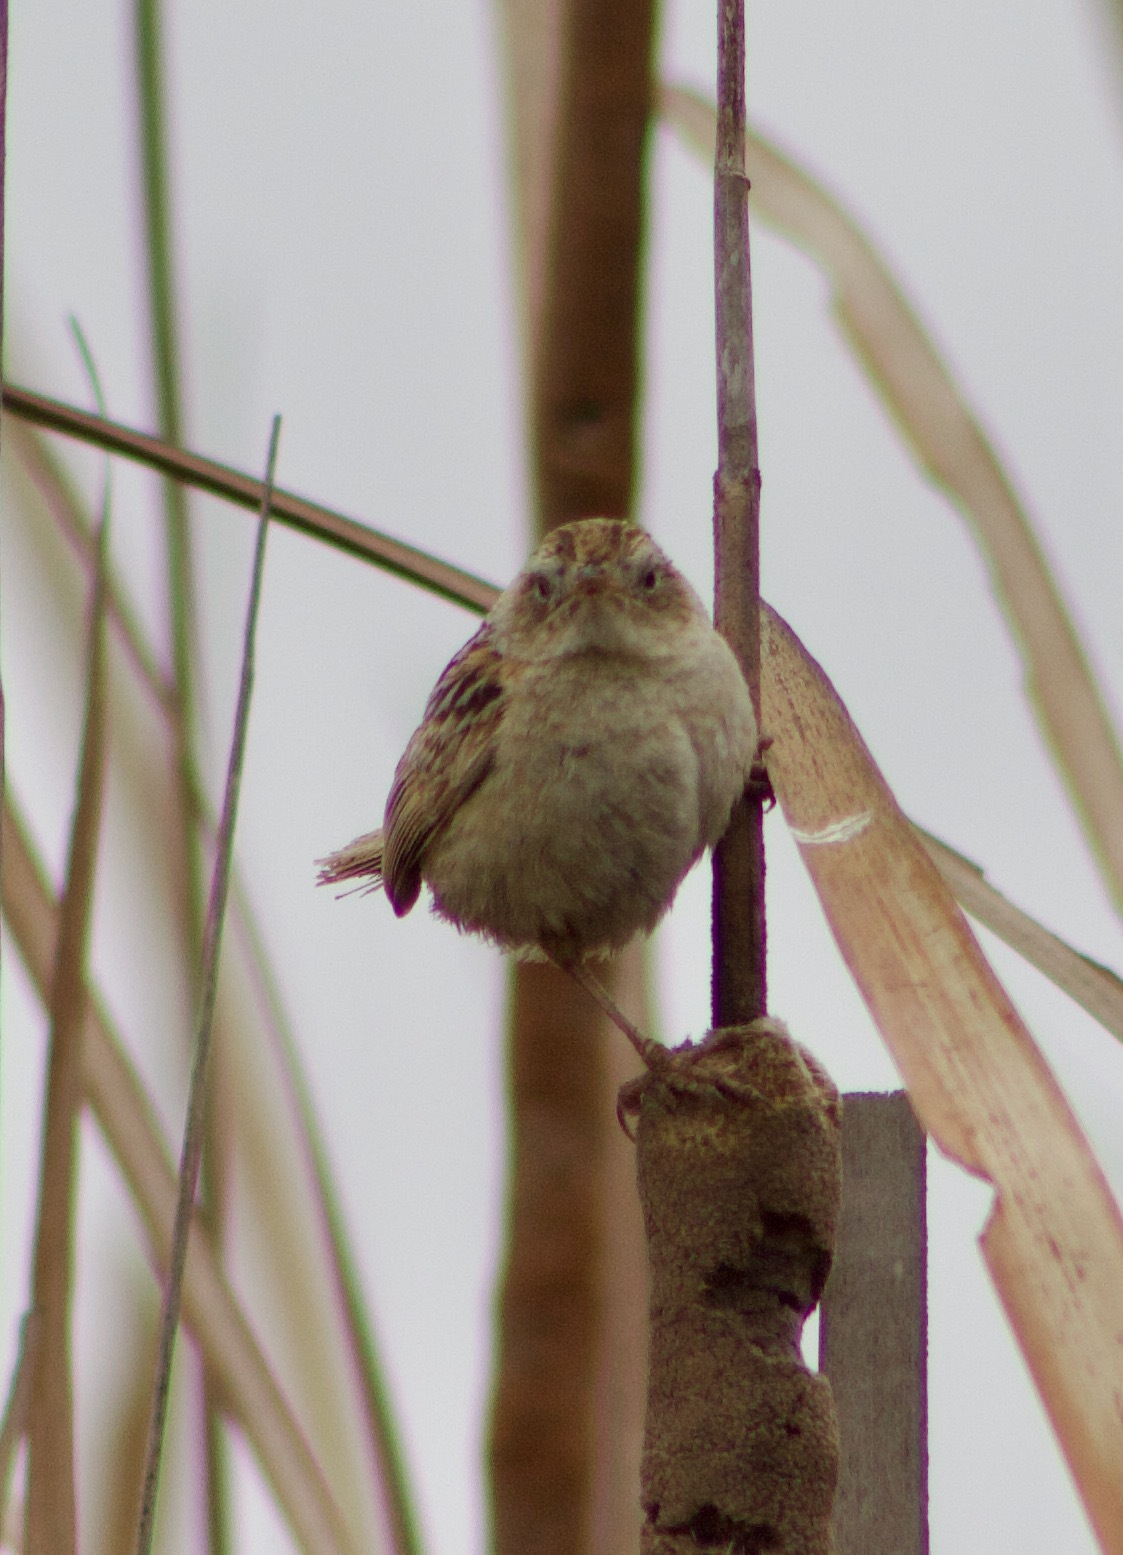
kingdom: Animalia
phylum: Chordata
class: Aves
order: Passeriformes
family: Troglodytidae
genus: Cistothorus
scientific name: Cistothorus platensis
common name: Sedge wren
